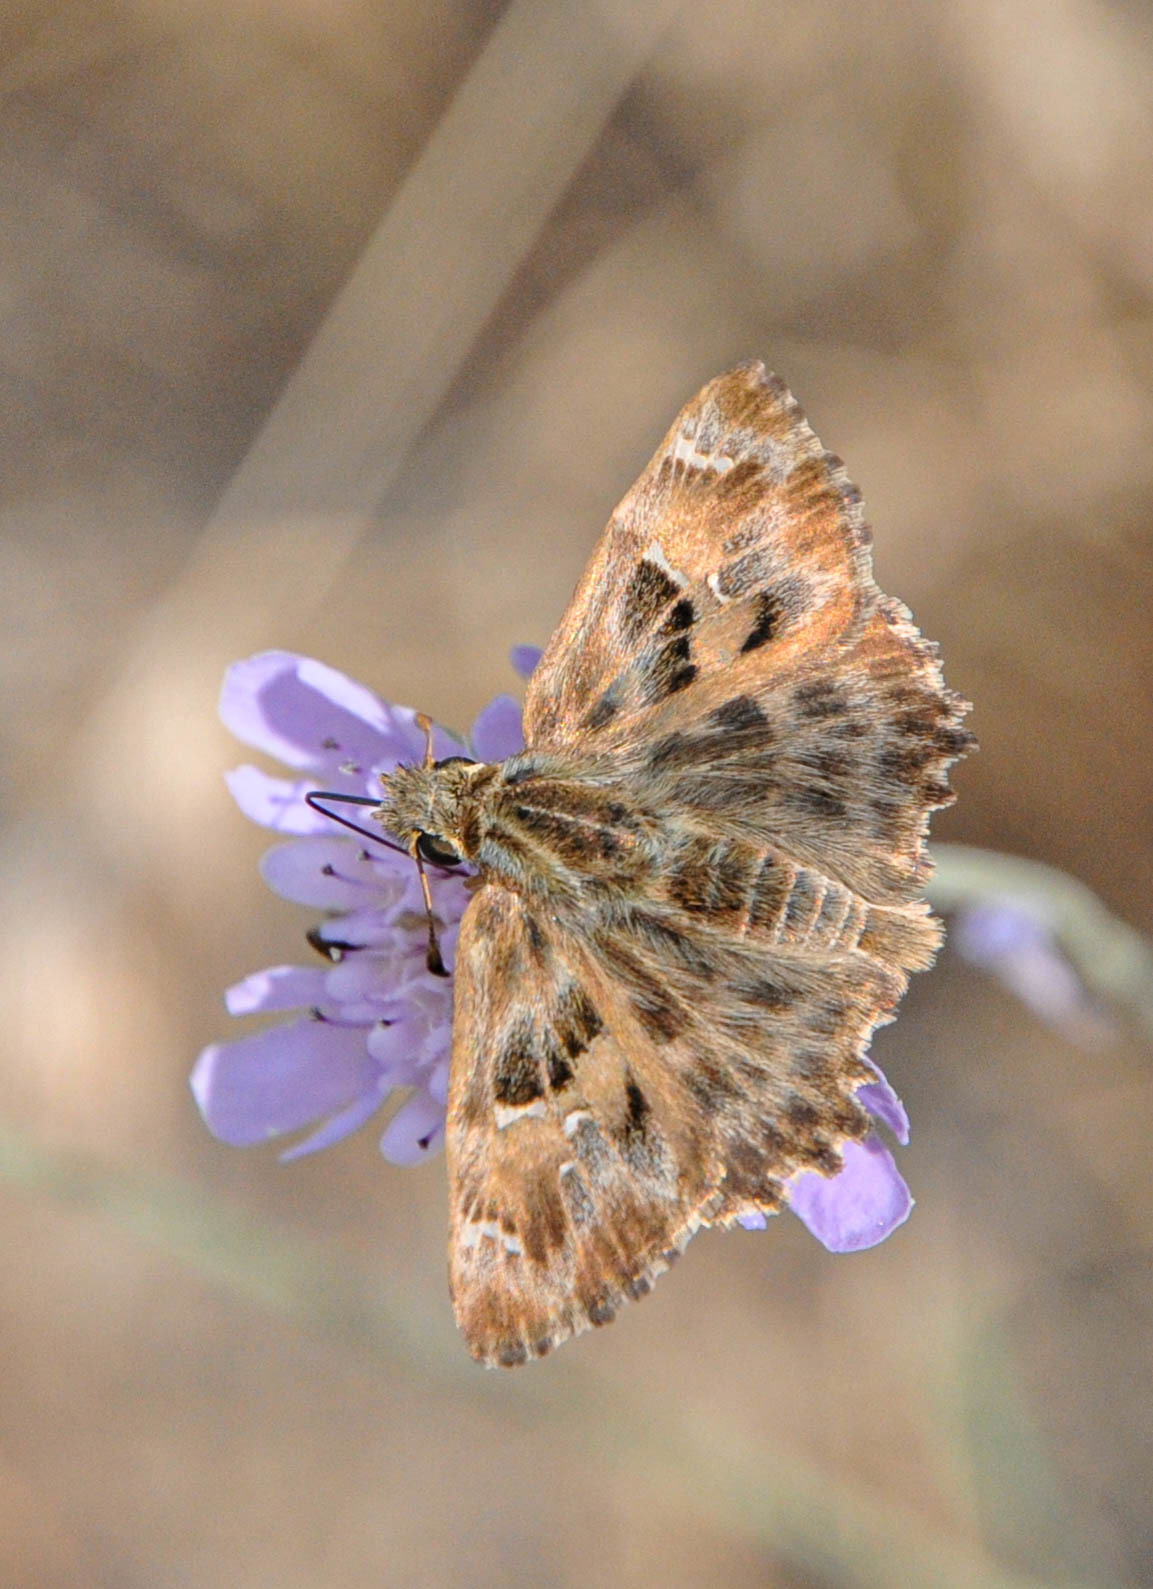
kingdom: Animalia
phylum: Arthropoda
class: Insecta
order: Lepidoptera
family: Hesperiidae
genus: Carcharodus
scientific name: Carcharodus alceae
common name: Mallow skipper
